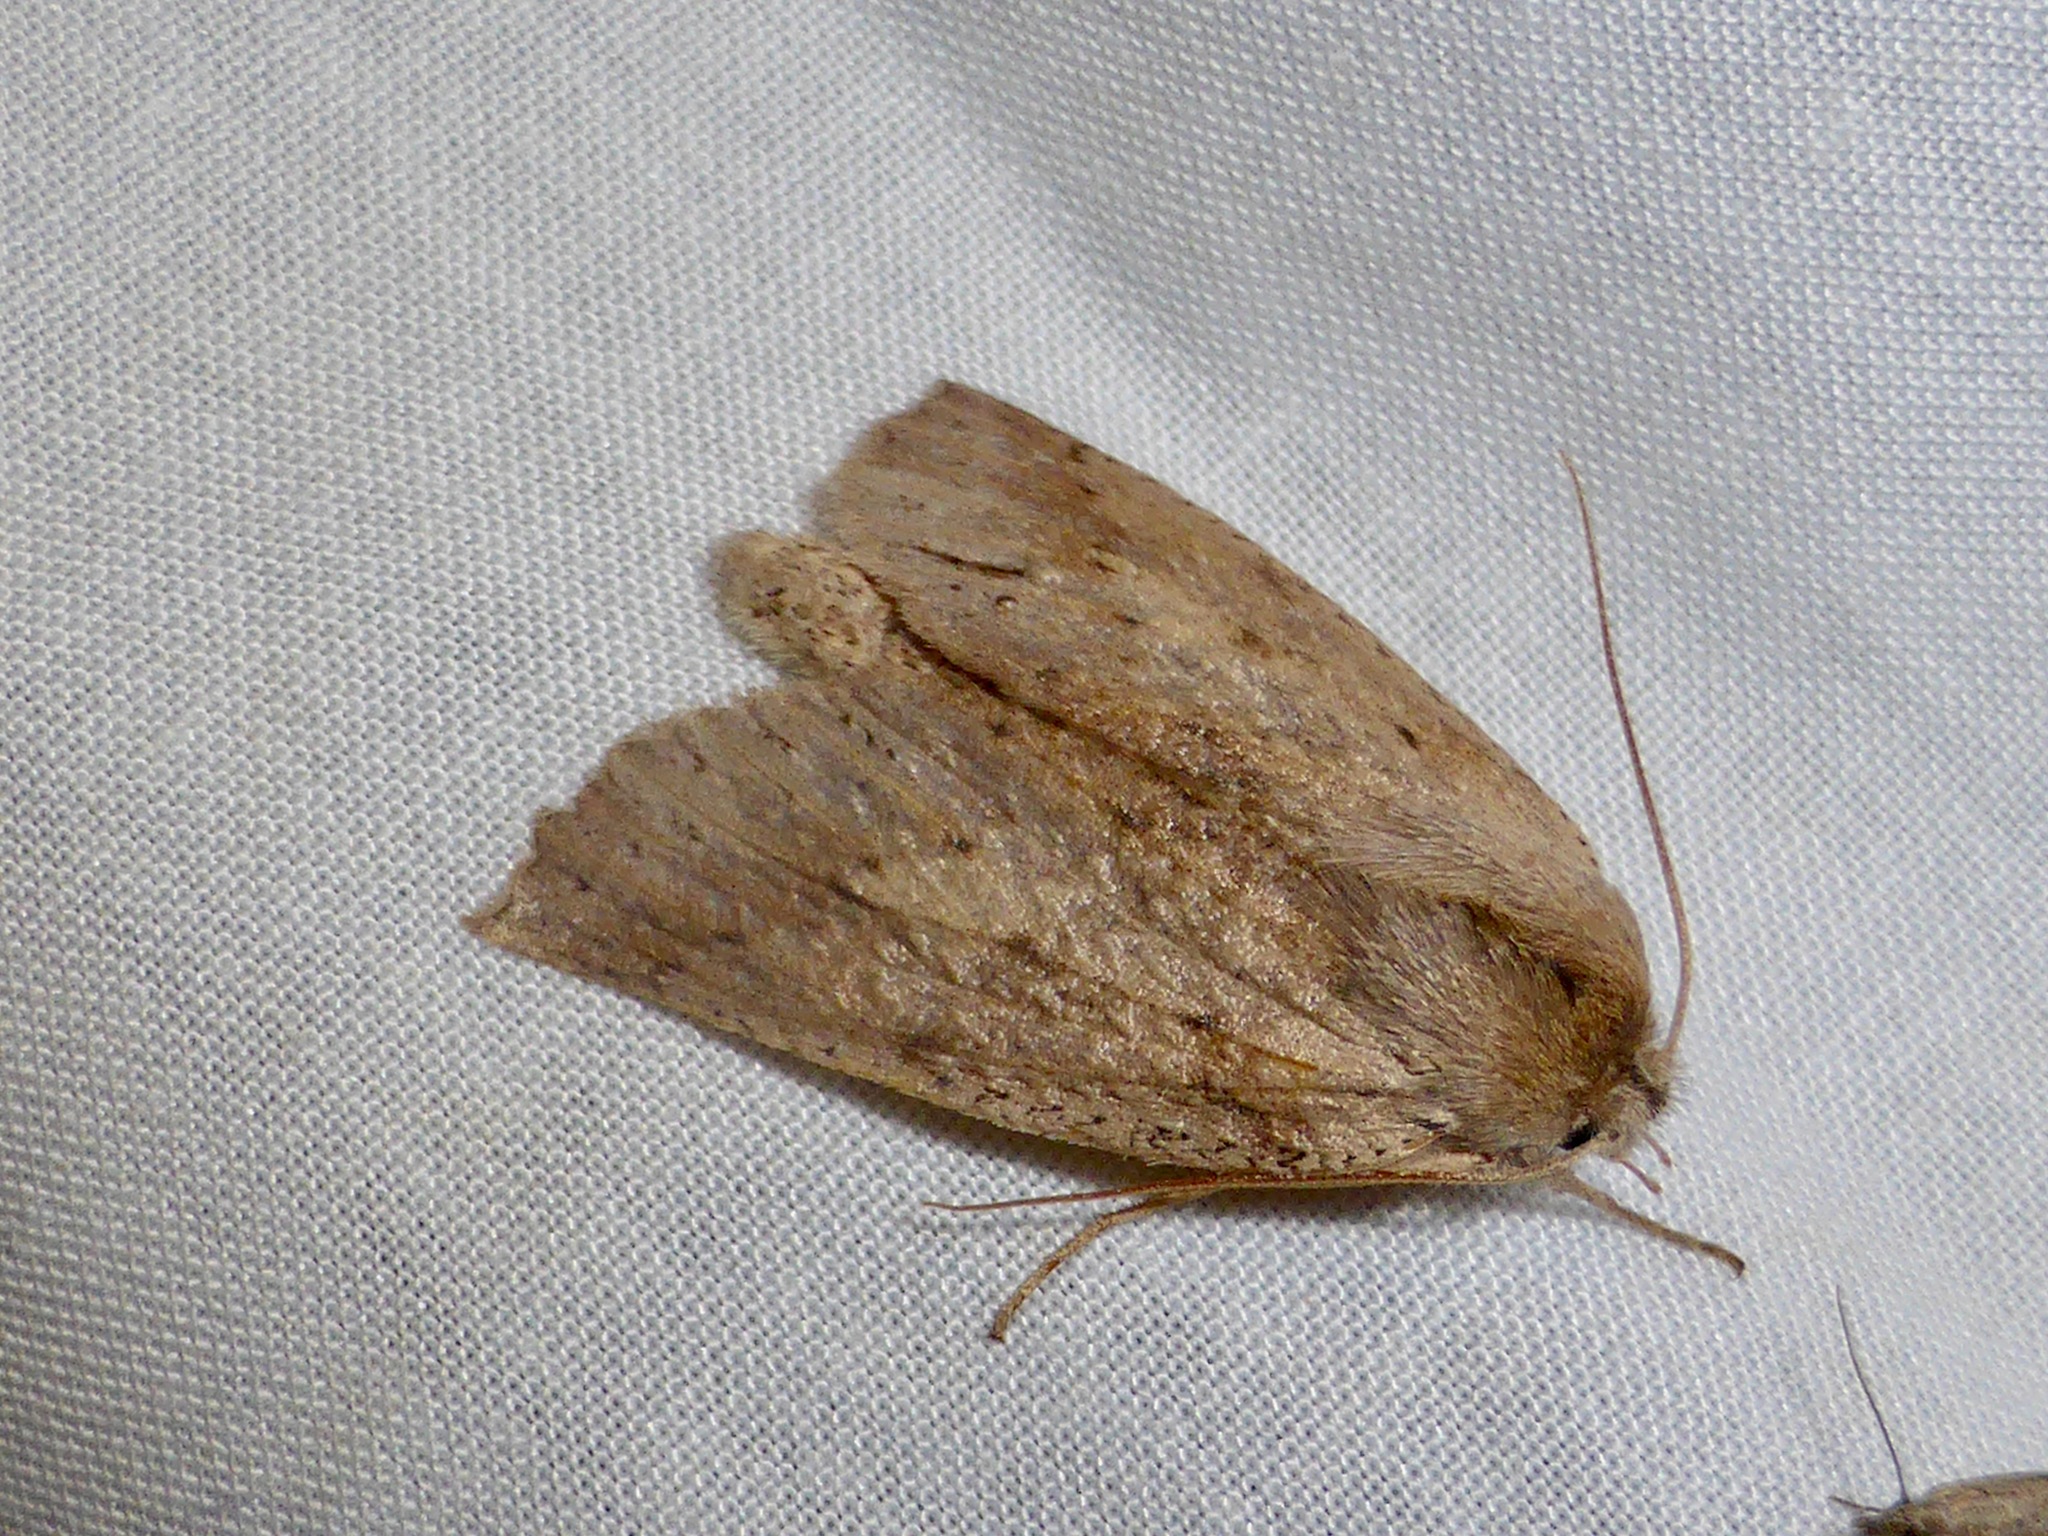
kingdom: Animalia
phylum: Arthropoda
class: Insecta
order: Lepidoptera
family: Geometridae
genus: Declana
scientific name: Declana leptomera
